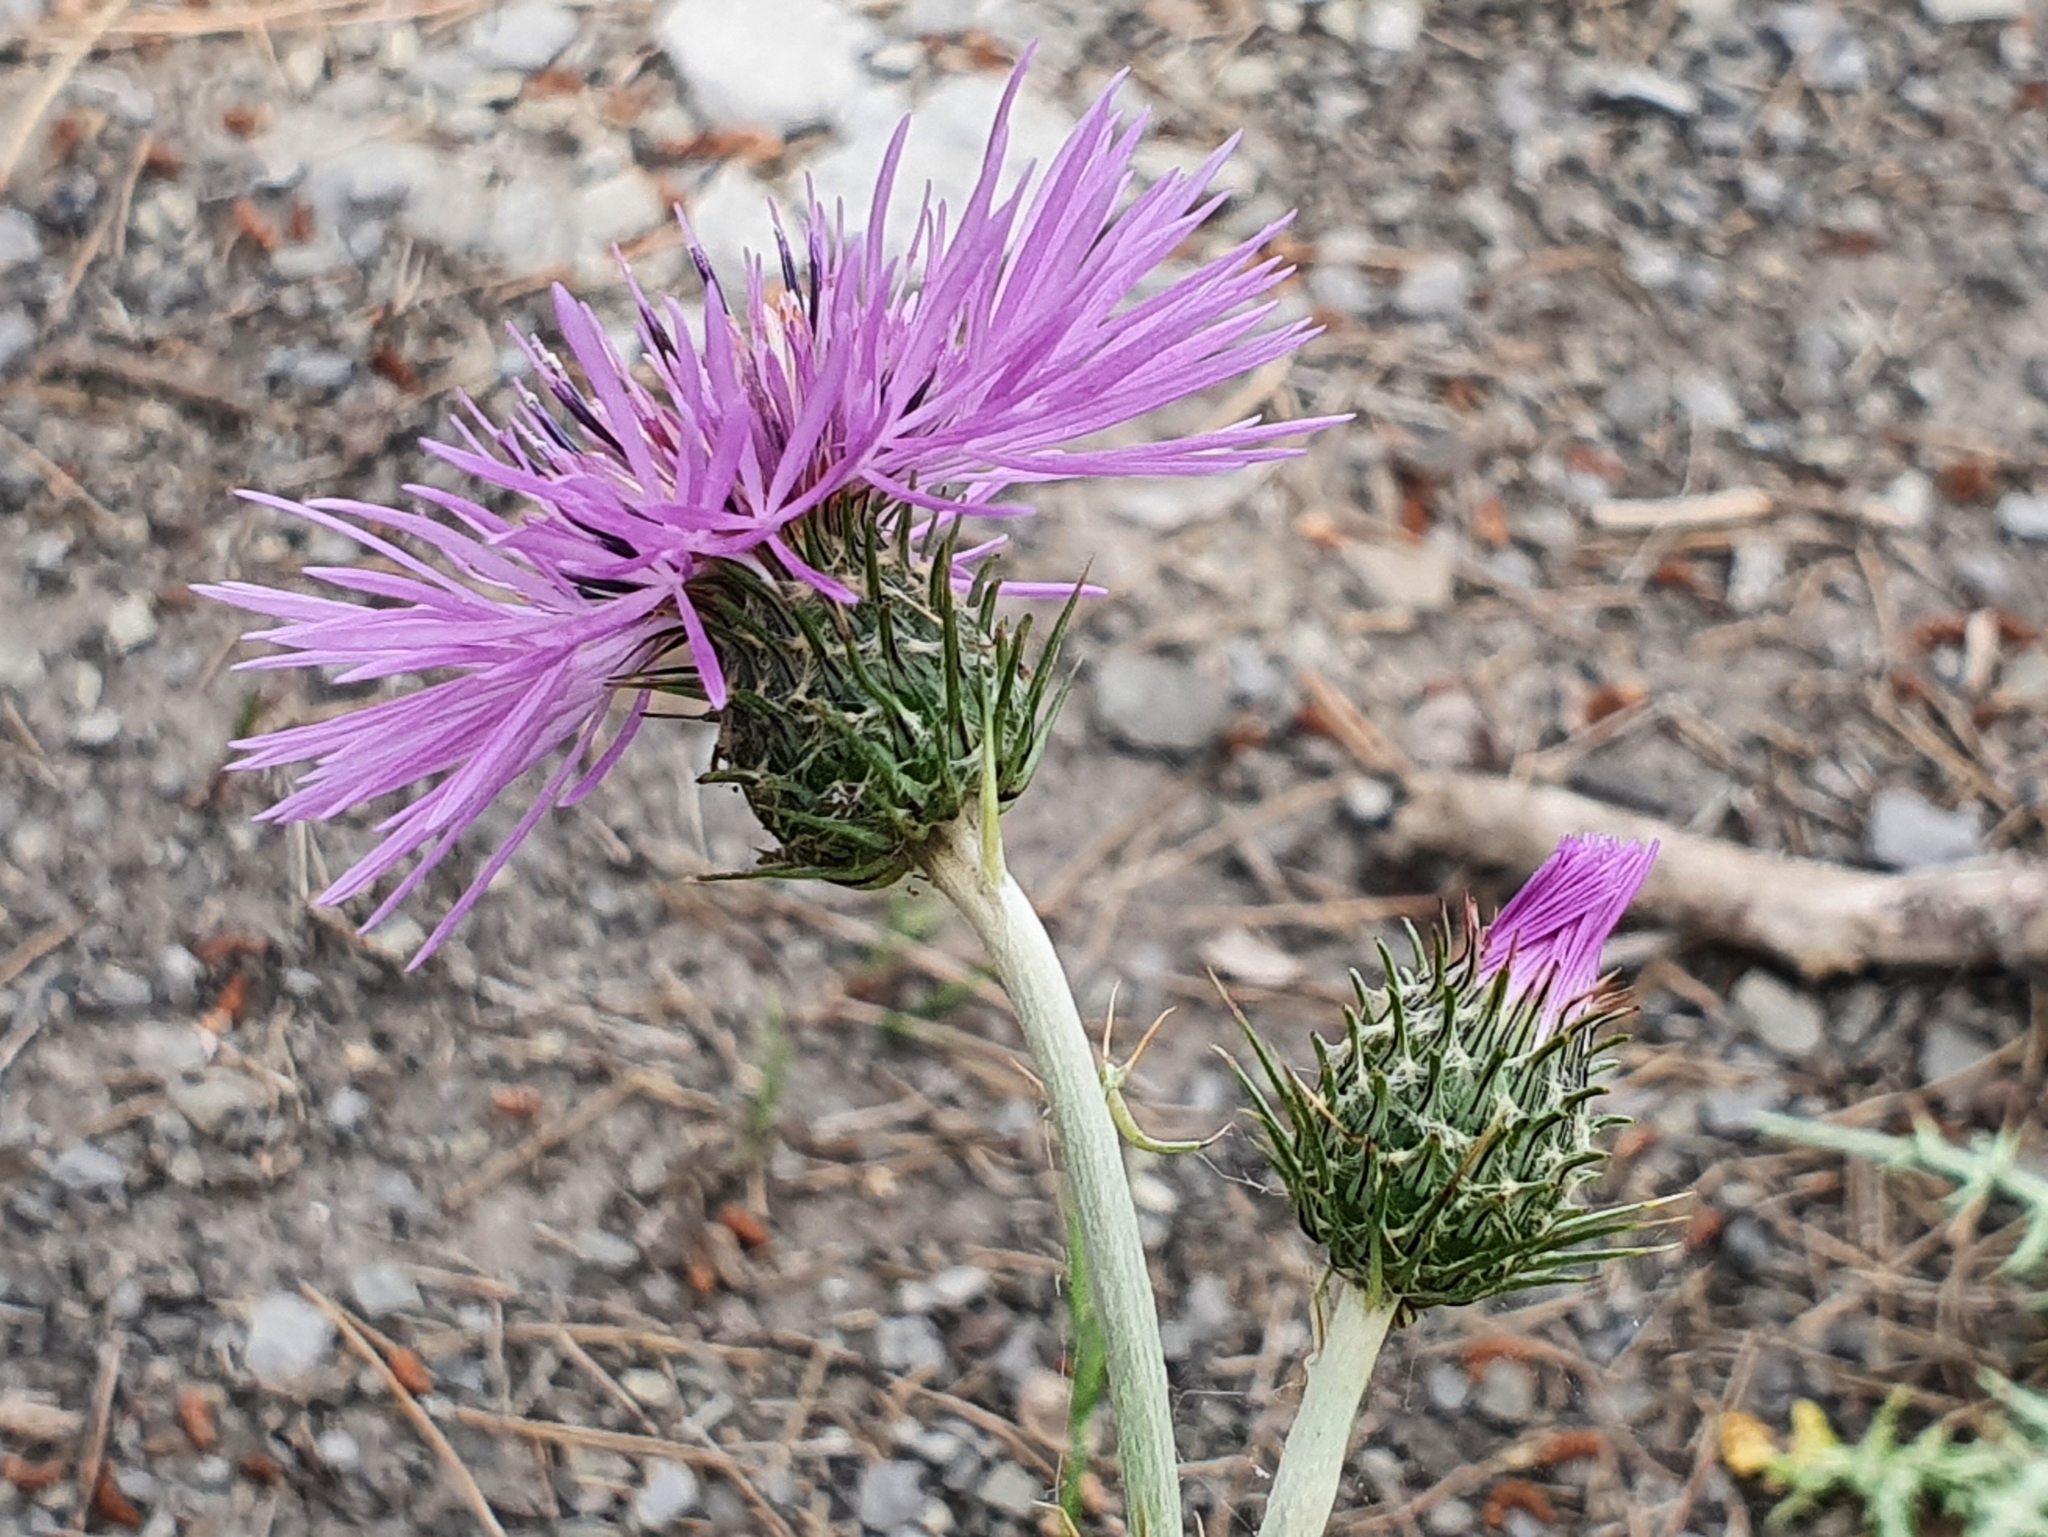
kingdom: Plantae
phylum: Tracheophyta
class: Magnoliopsida
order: Asterales
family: Asteraceae
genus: Galactites
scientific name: Galactites tomentosa
